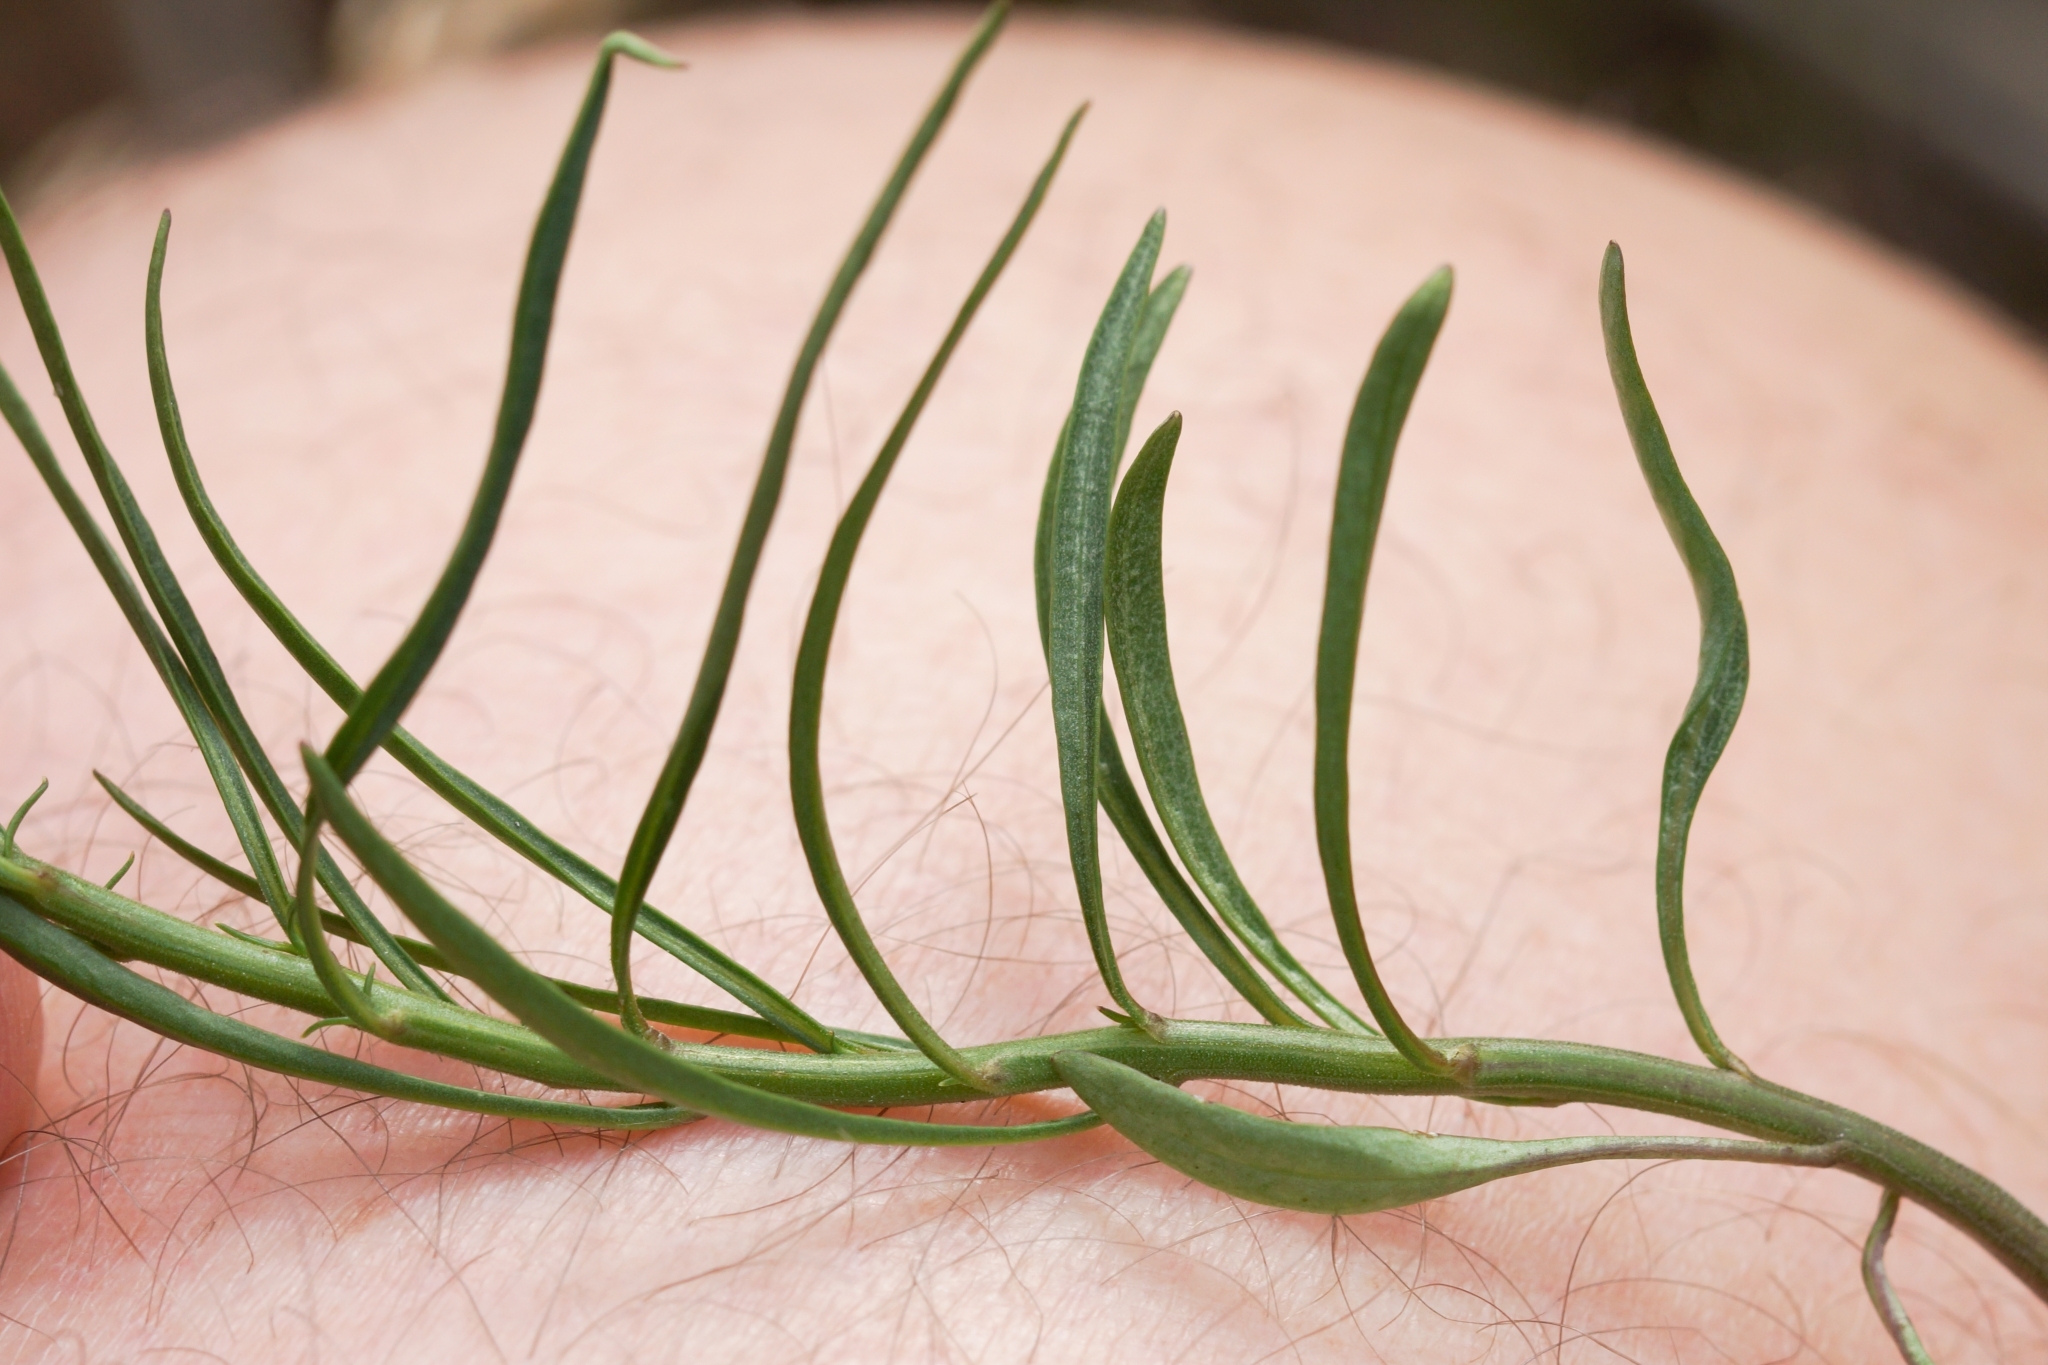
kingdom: Plantae
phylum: Tracheophyta
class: Magnoliopsida
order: Asterales
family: Campanulaceae
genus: Campanula
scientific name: Campanula rotundifolia
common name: Harebell
